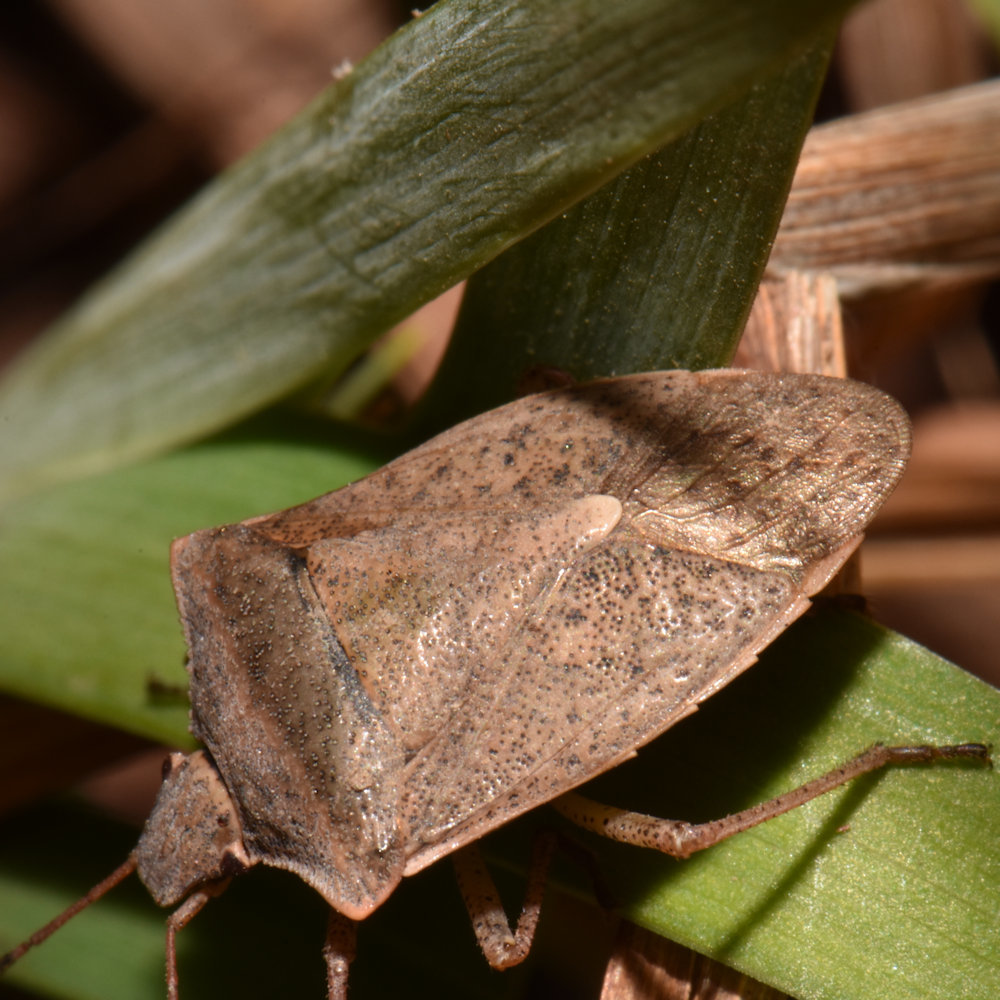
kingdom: Animalia
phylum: Arthropoda
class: Insecta
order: Hemiptera
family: Pentatomidae
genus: Euschistus
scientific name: Euschistus variolarius
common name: Onespotted stink bug
